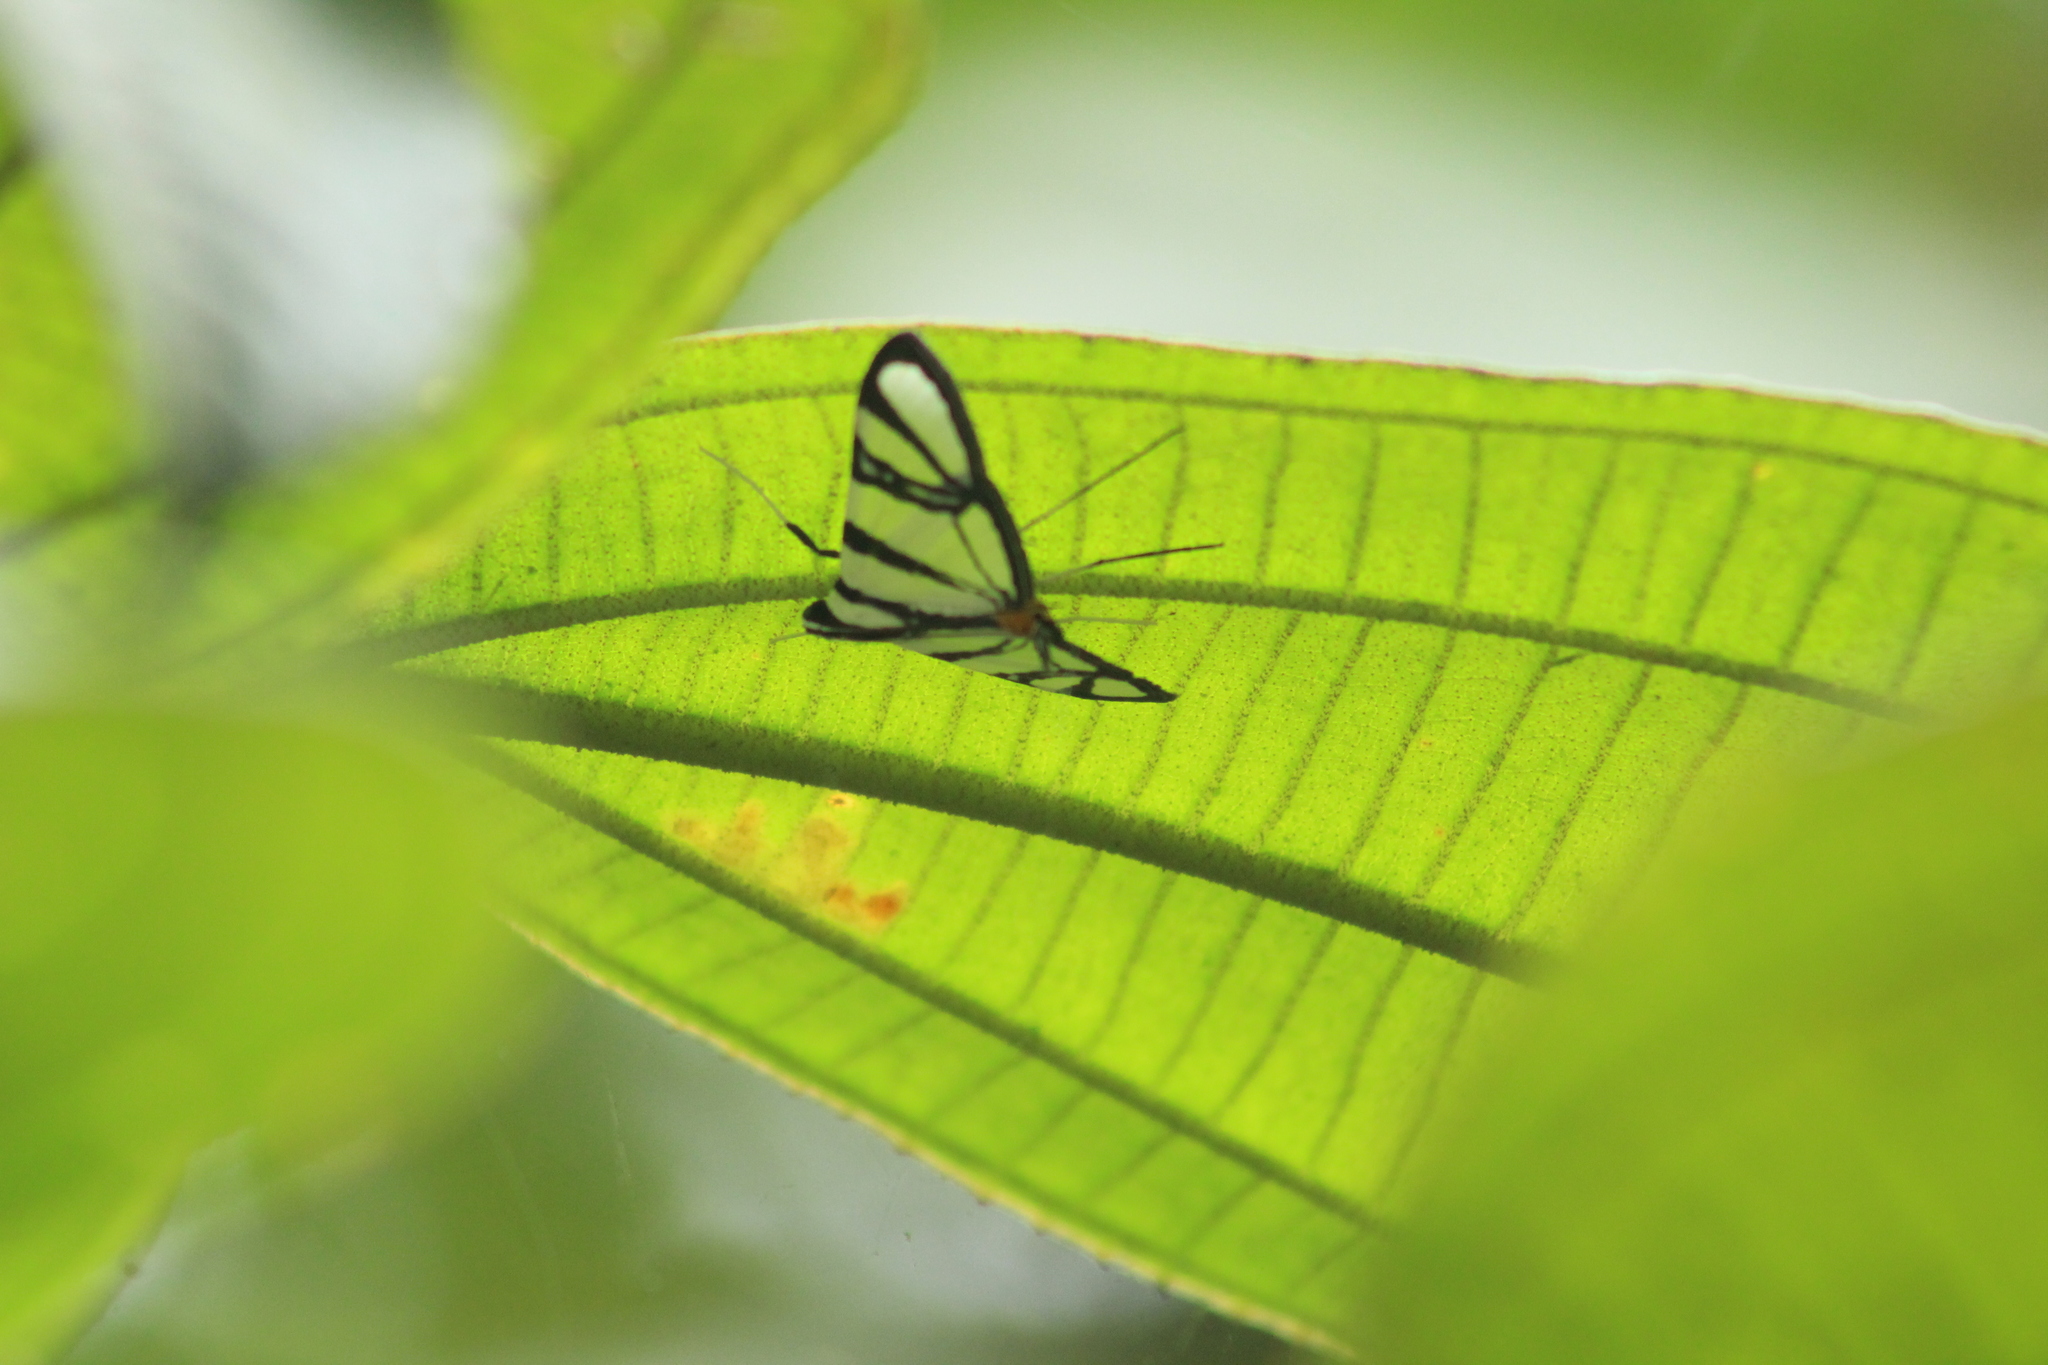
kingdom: Animalia
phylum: Arthropoda
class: Insecta
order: Lepidoptera
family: Crambidae
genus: Conchylodes
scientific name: Conchylodes nolckenialis
